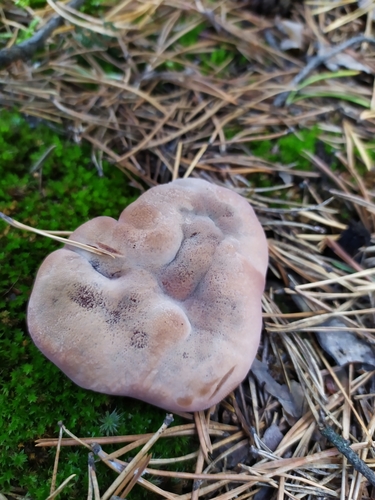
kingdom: Fungi
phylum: Basidiomycota
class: Agaricomycetes
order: Thelephorales
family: Bankeraceae
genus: Hydnellum
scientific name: Hydnellum
